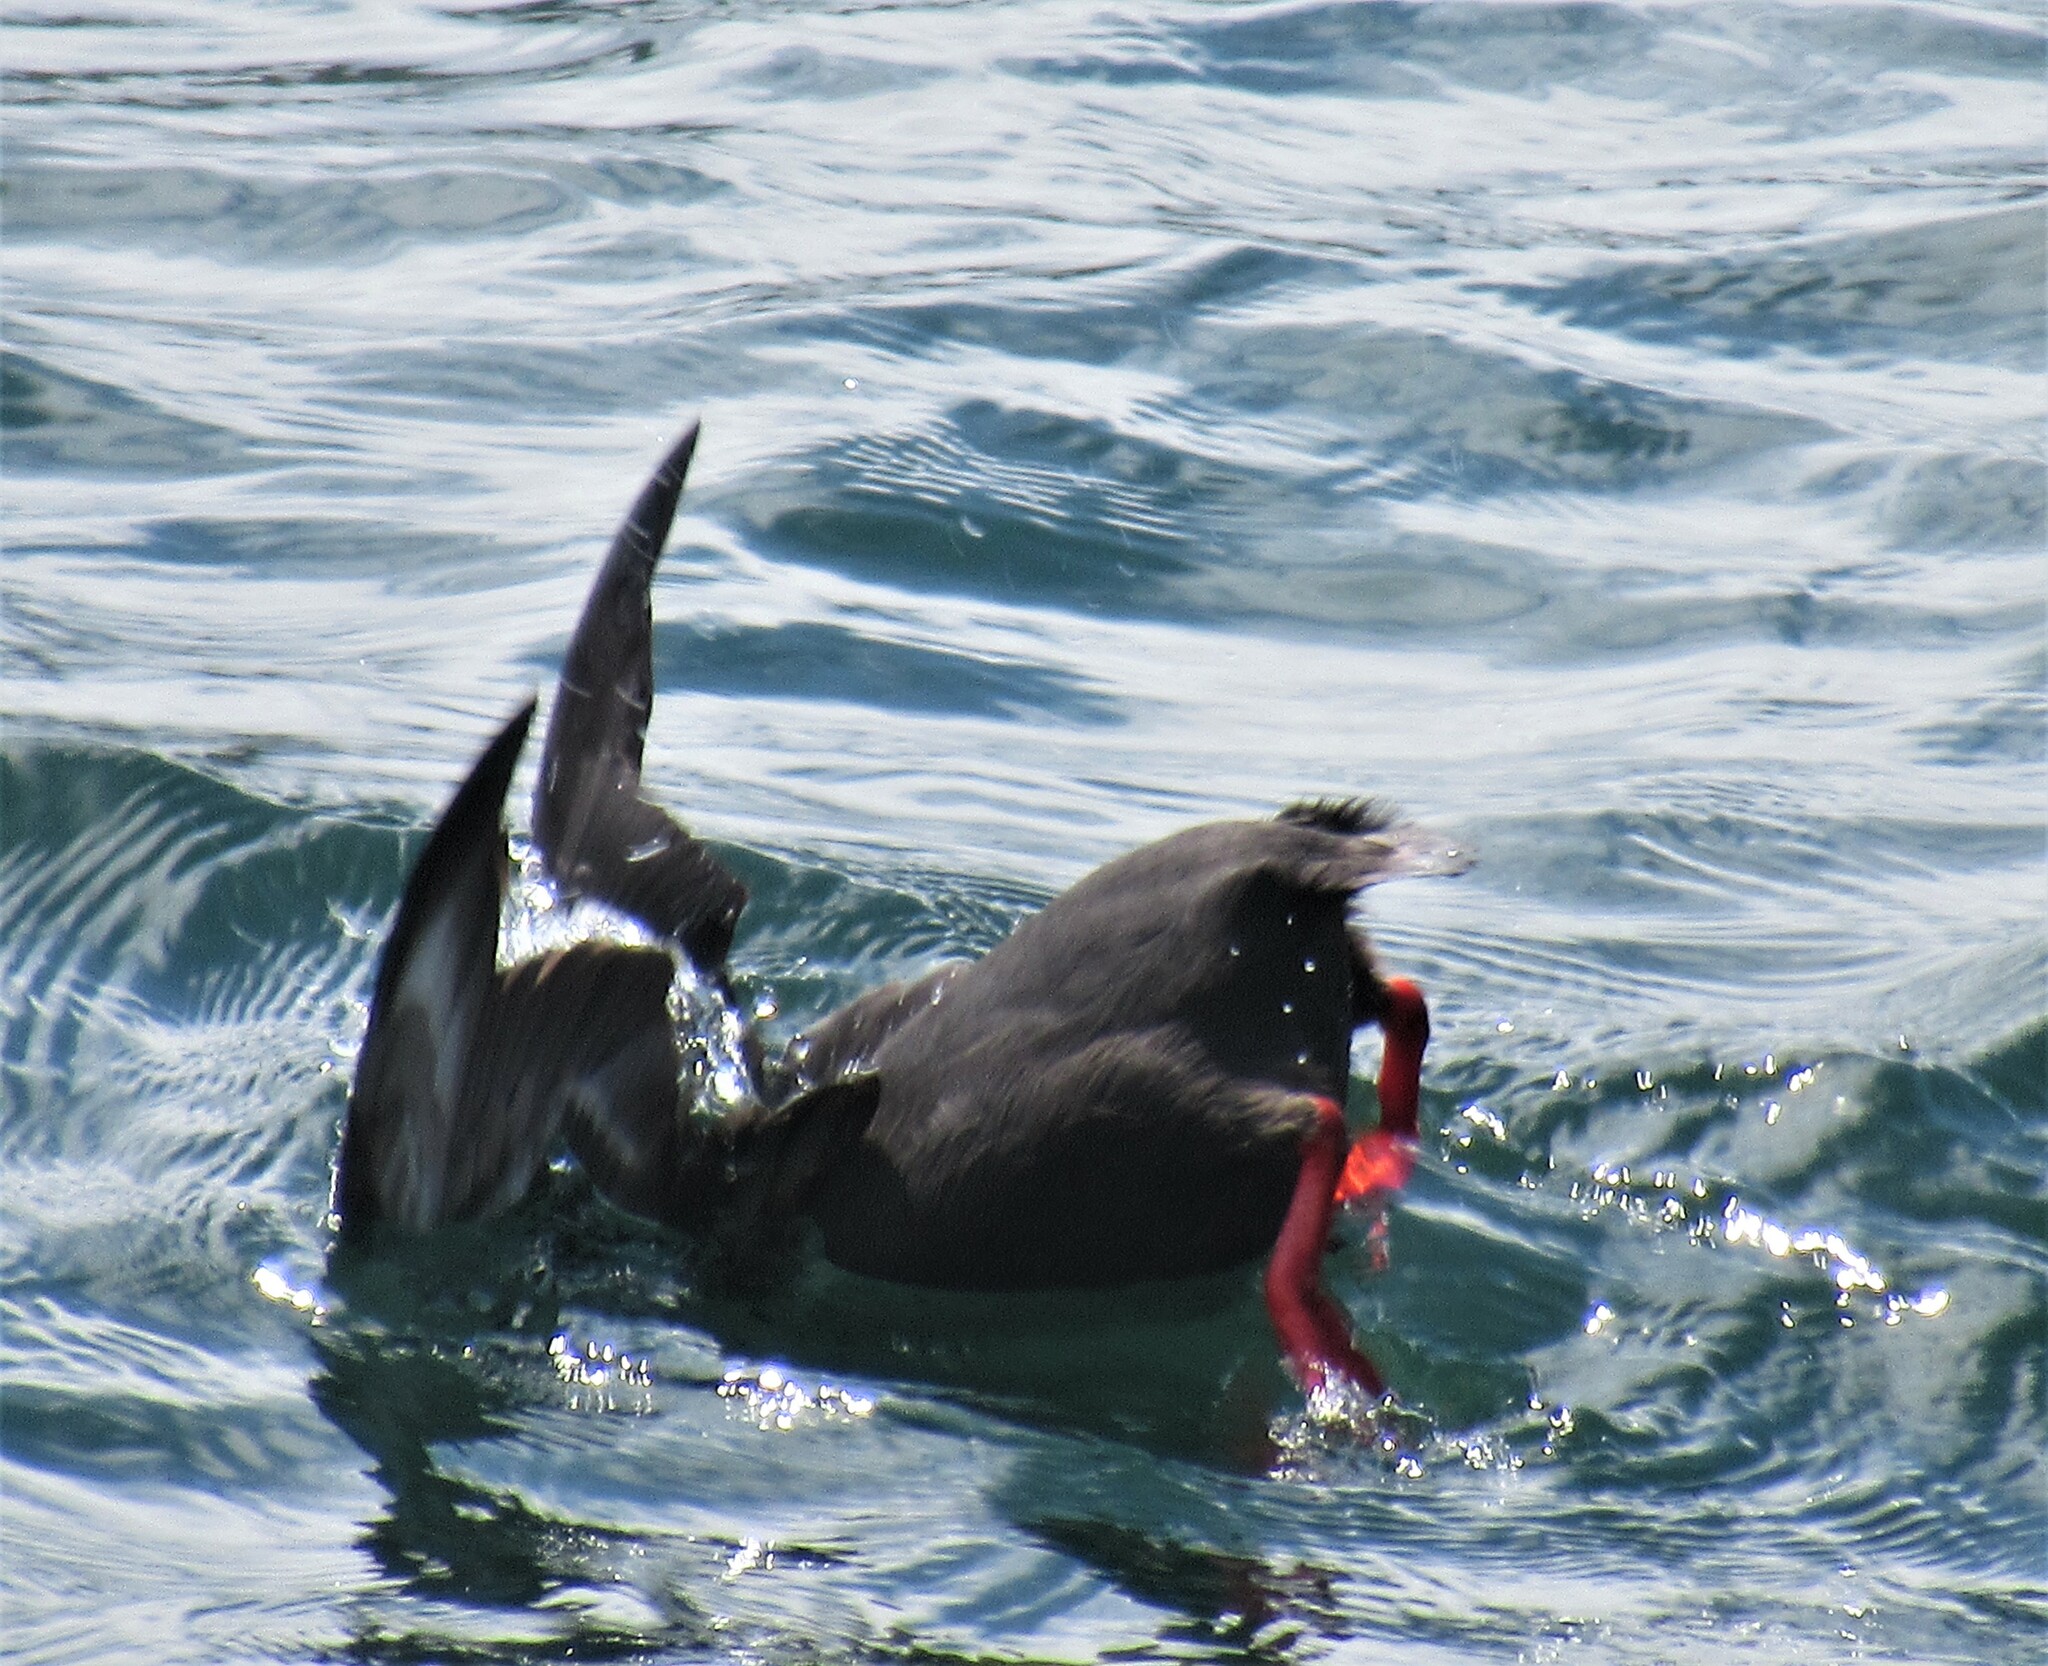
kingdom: Animalia
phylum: Chordata
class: Aves
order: Charadriiformes
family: Alcidae
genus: Cepphus
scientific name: Cepphus columba
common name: Pigeon guillemot
